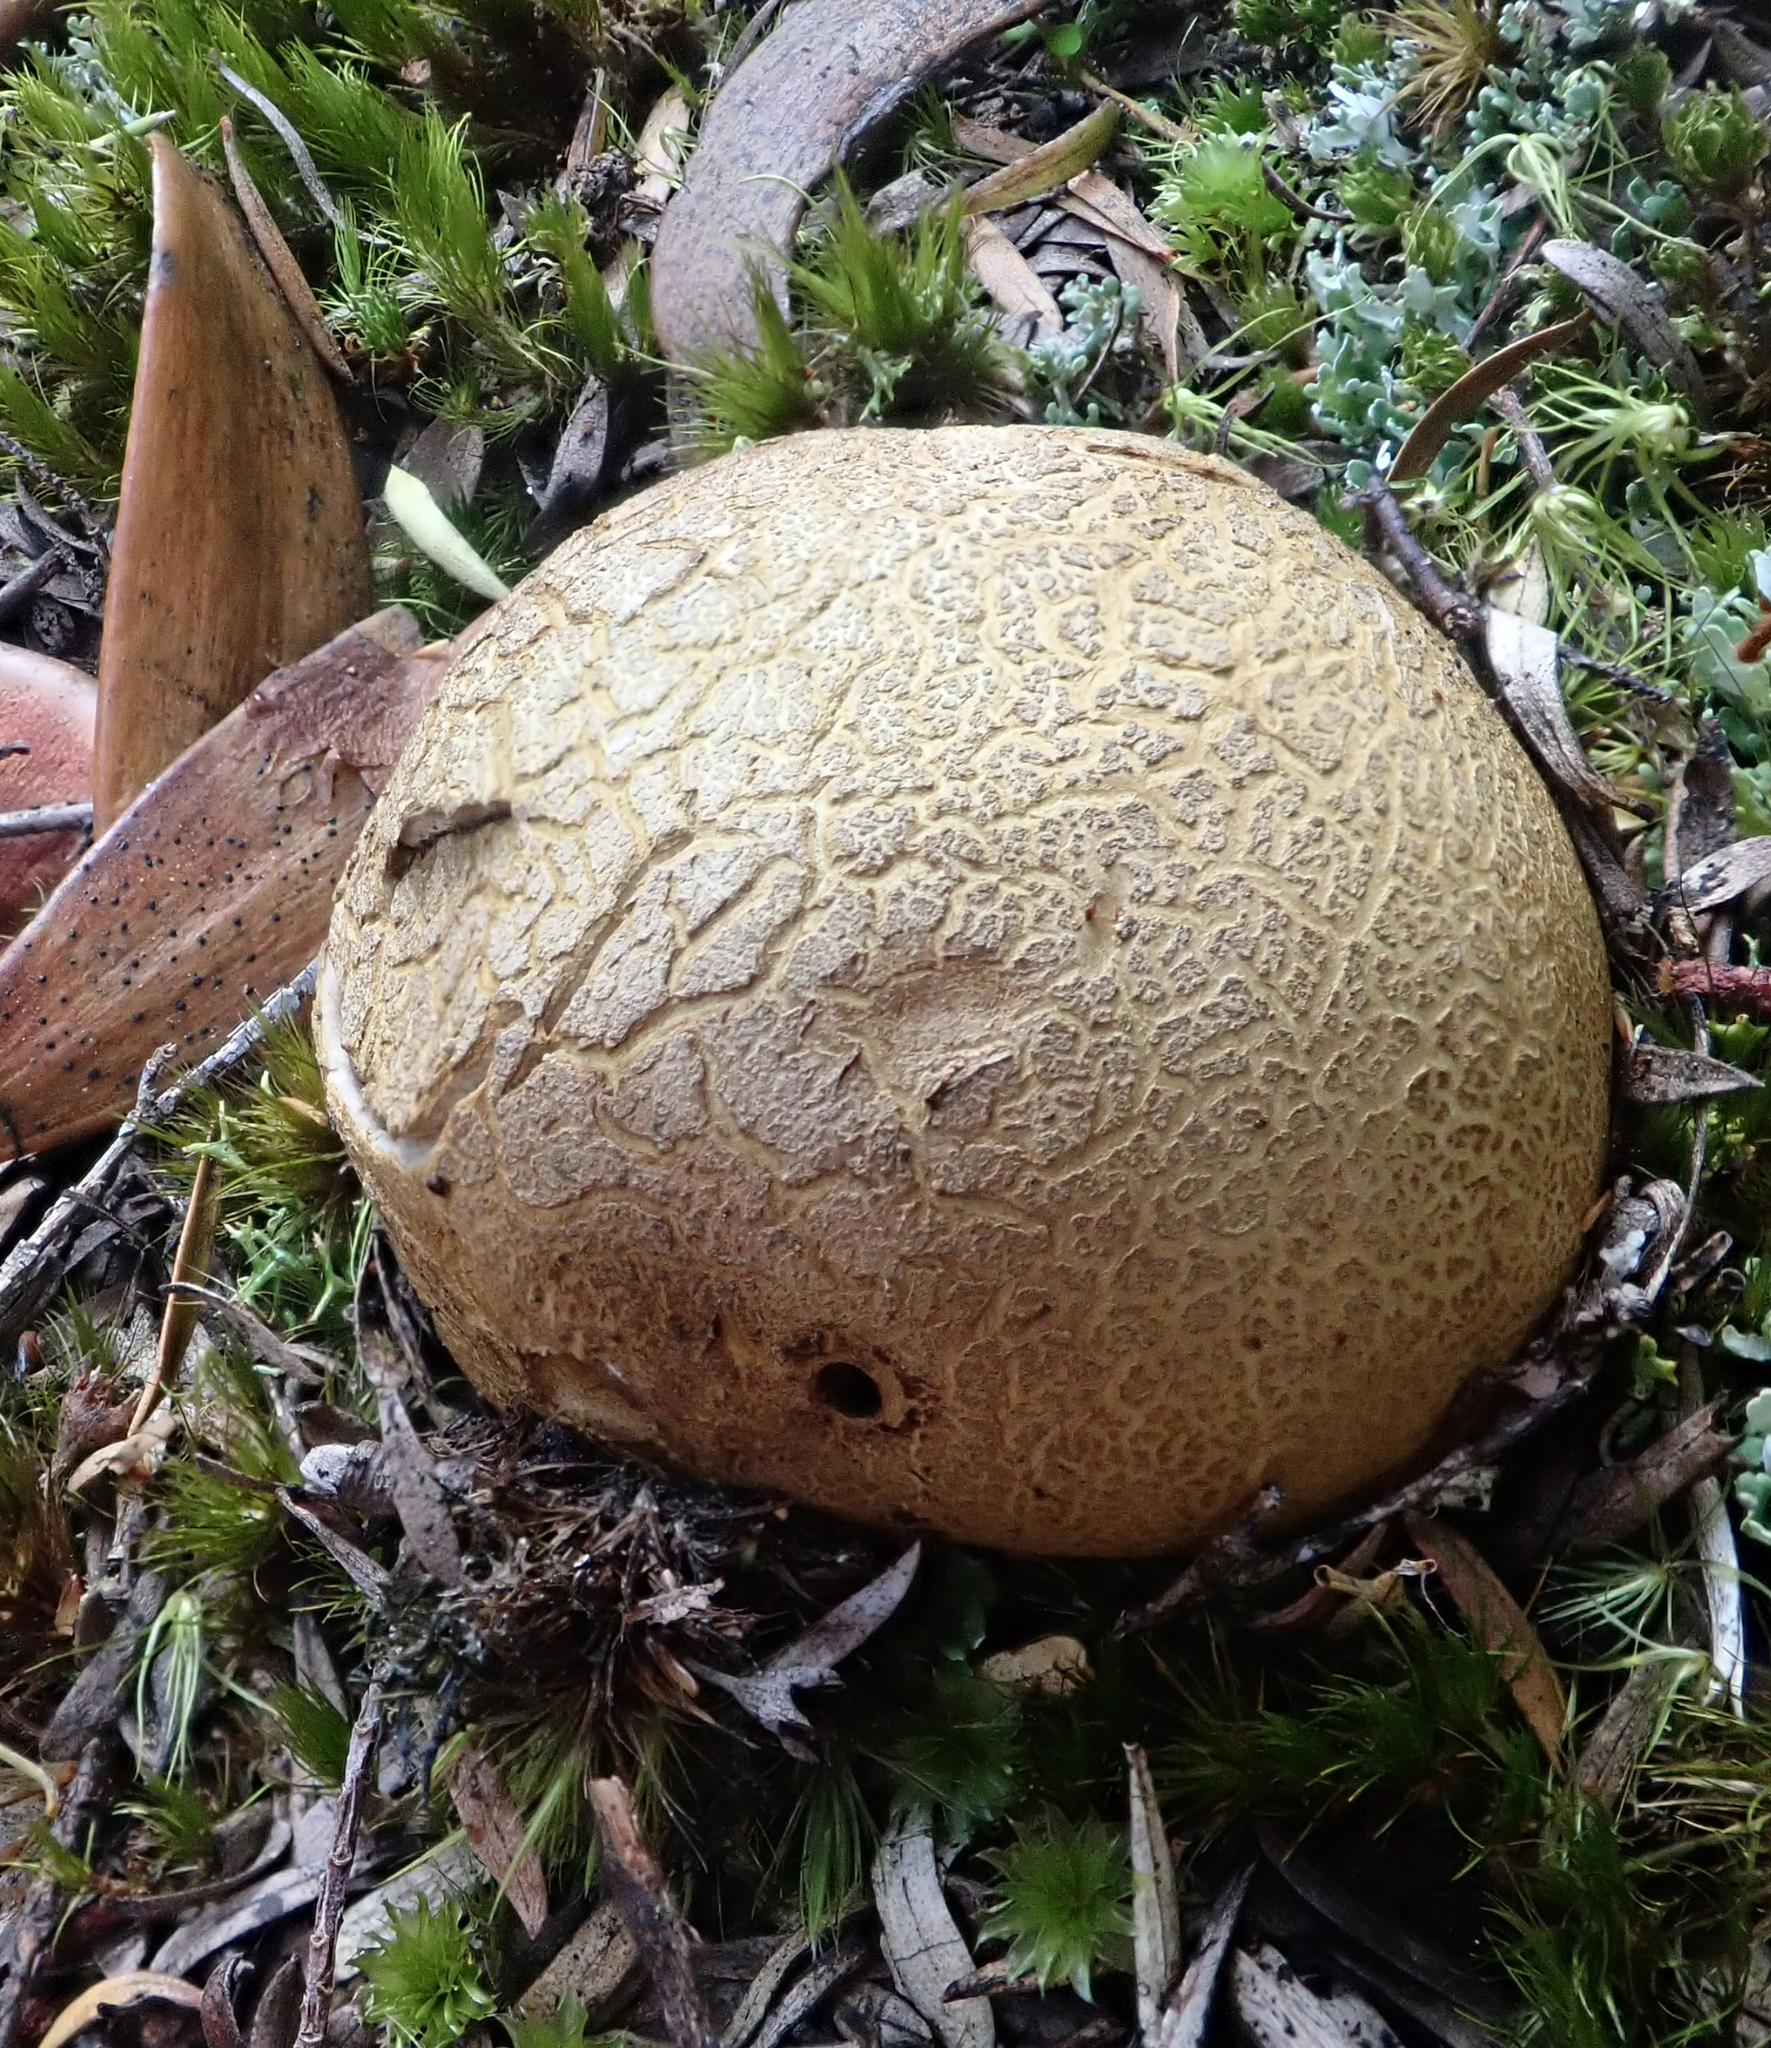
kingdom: Fungi
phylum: Basidiomycota
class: Agaricomycetes
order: Boletales
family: Sclerodermataceae
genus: Scleroderma
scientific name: Scleroderma
